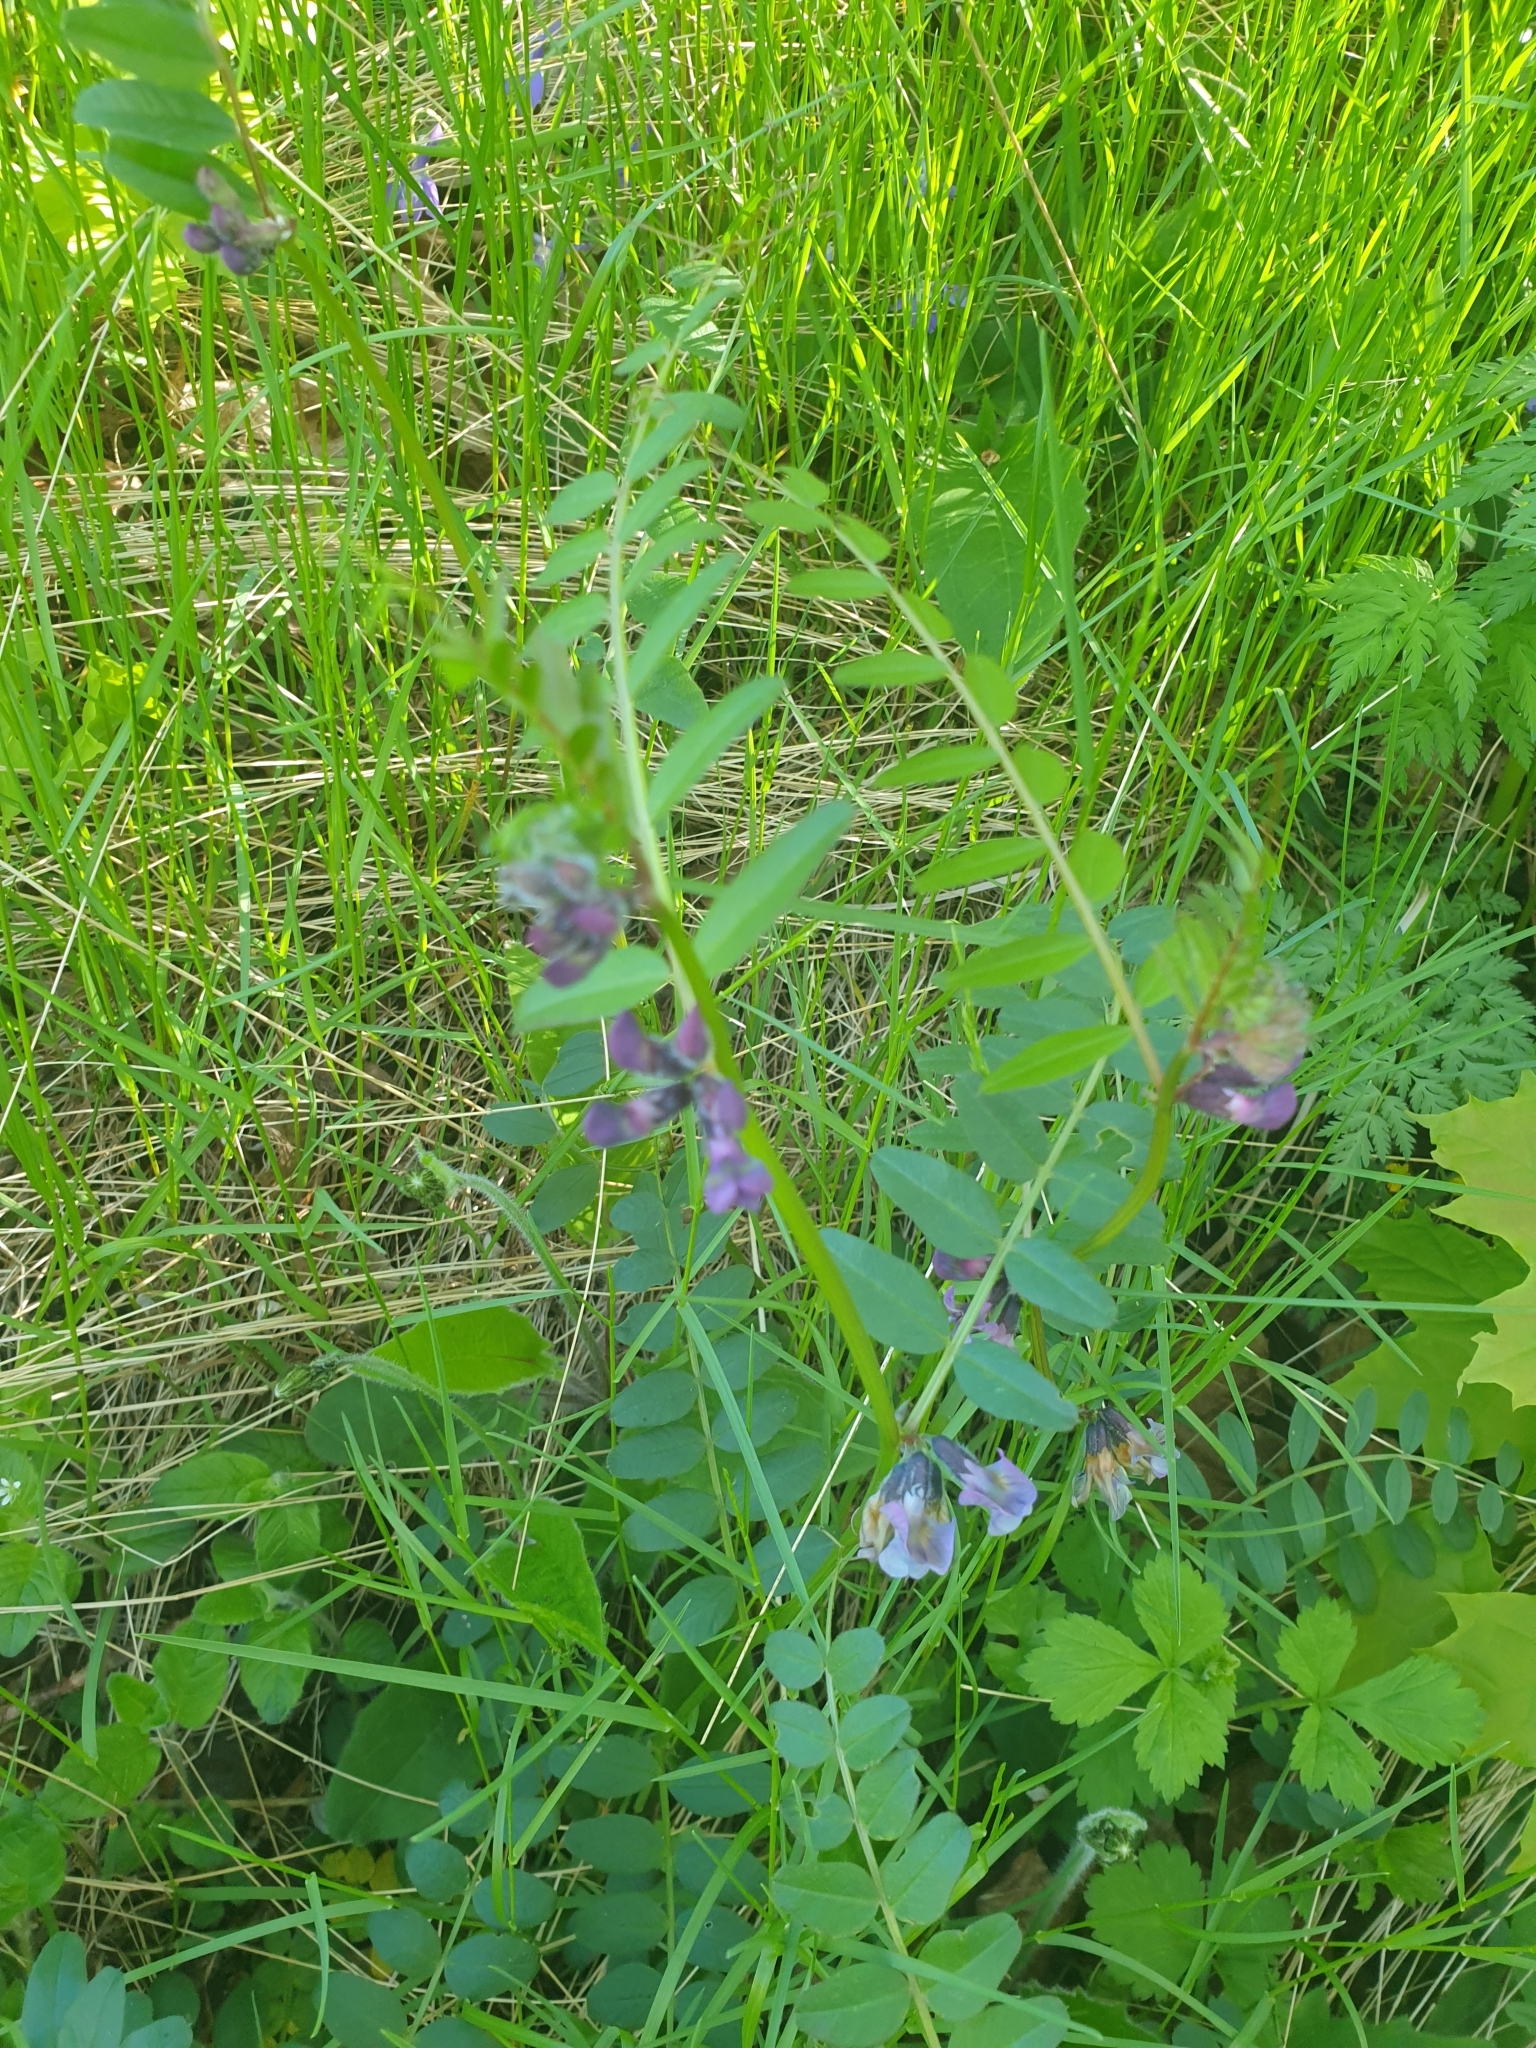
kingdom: Plantae
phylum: Tracheophyta
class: Magnoliopsida
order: Fabales
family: Fabaceae
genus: Vicia
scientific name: Vicia sepium
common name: Bush vetch
